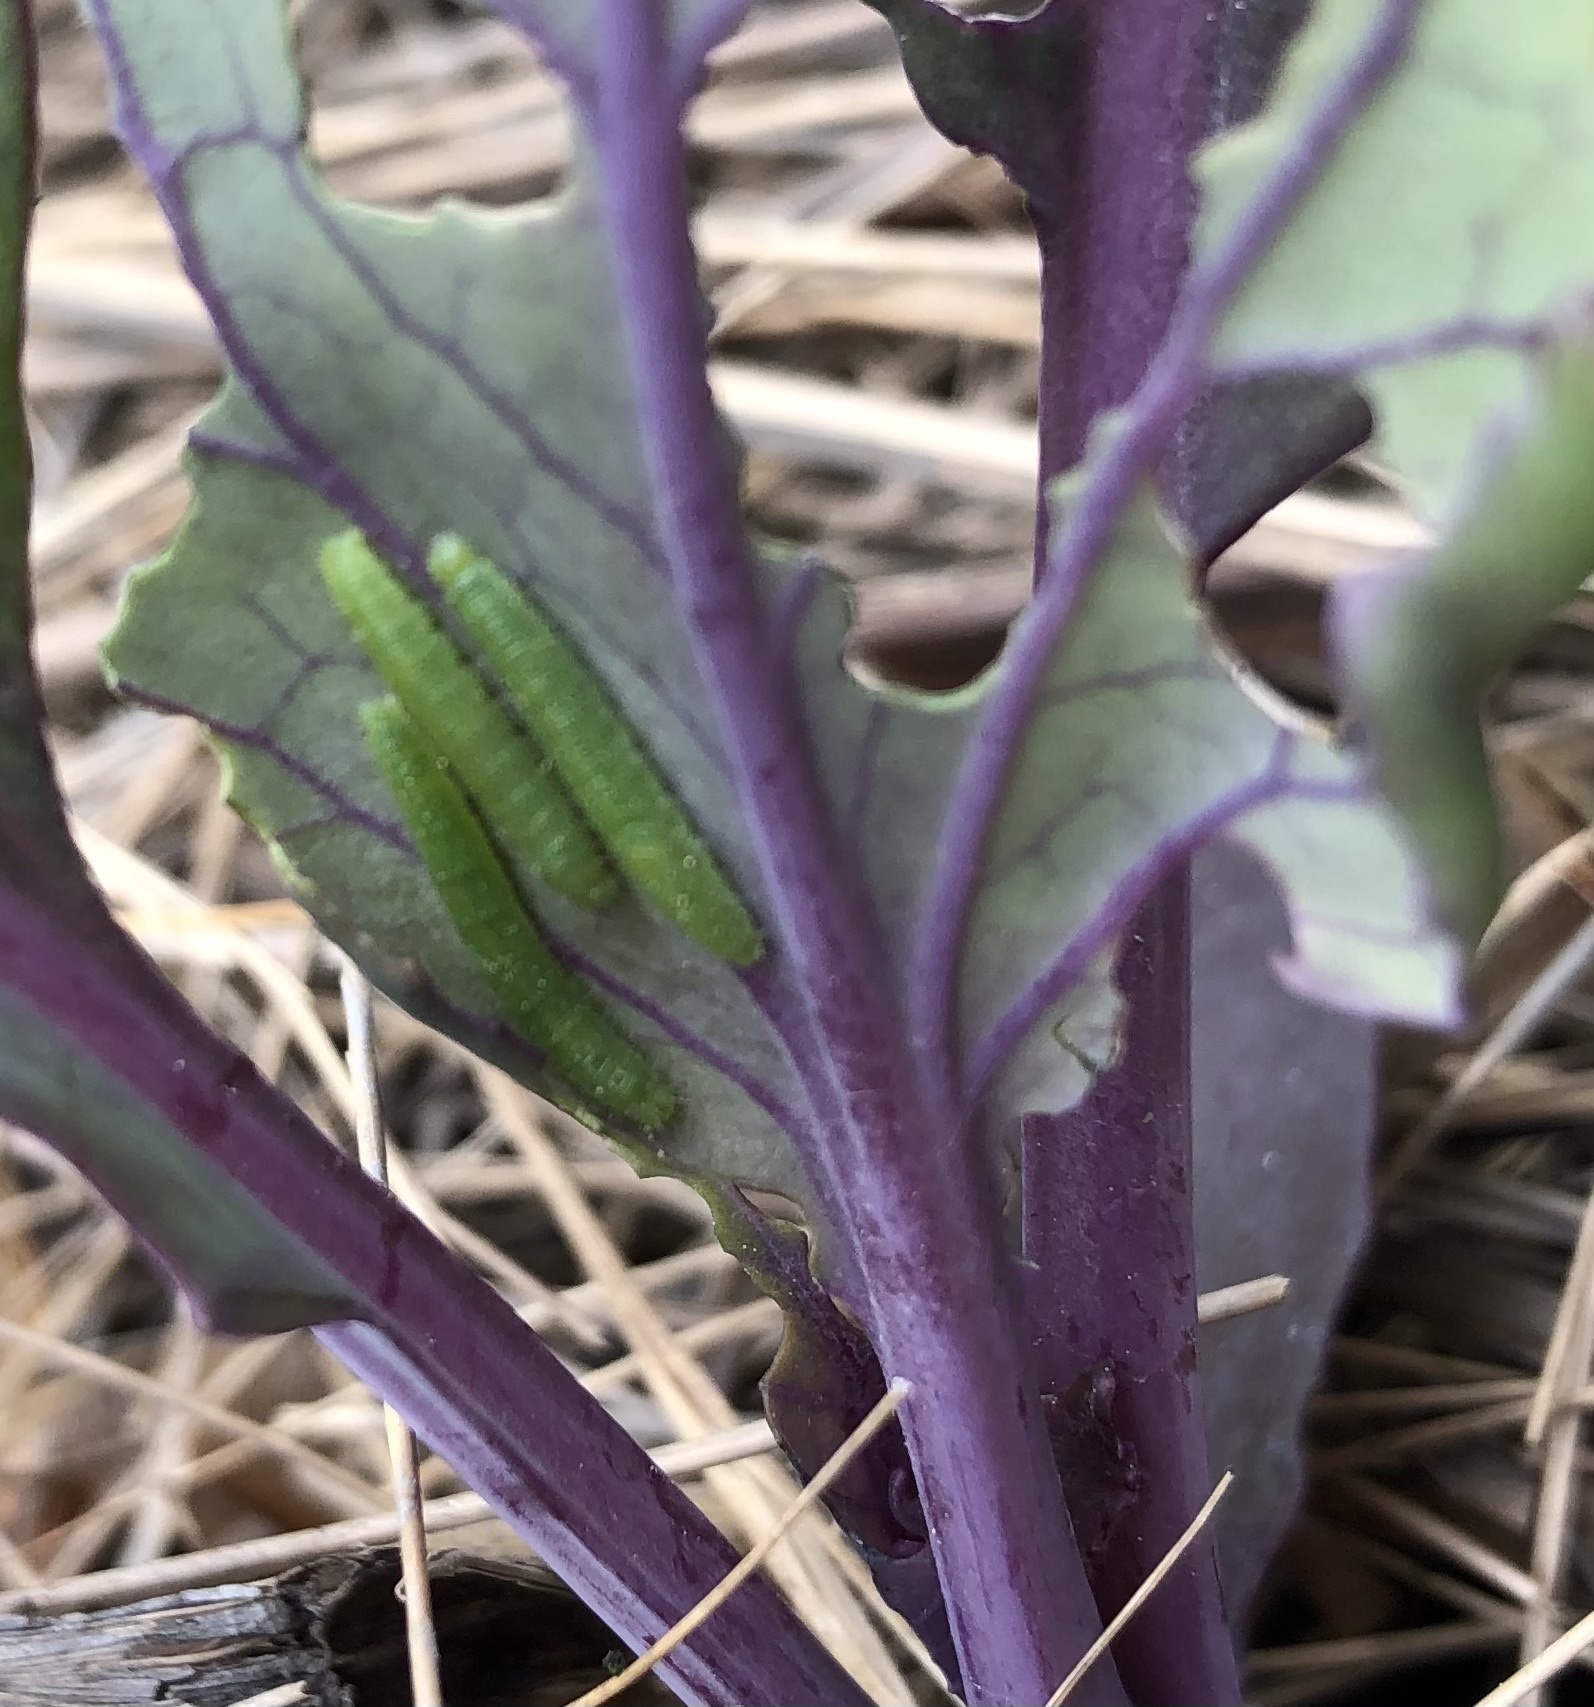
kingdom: Animalia
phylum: Arthropoda
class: Insecta
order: Lepidoptera
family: Pieridae
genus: Pieris
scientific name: Pieris rapae
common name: Small white
